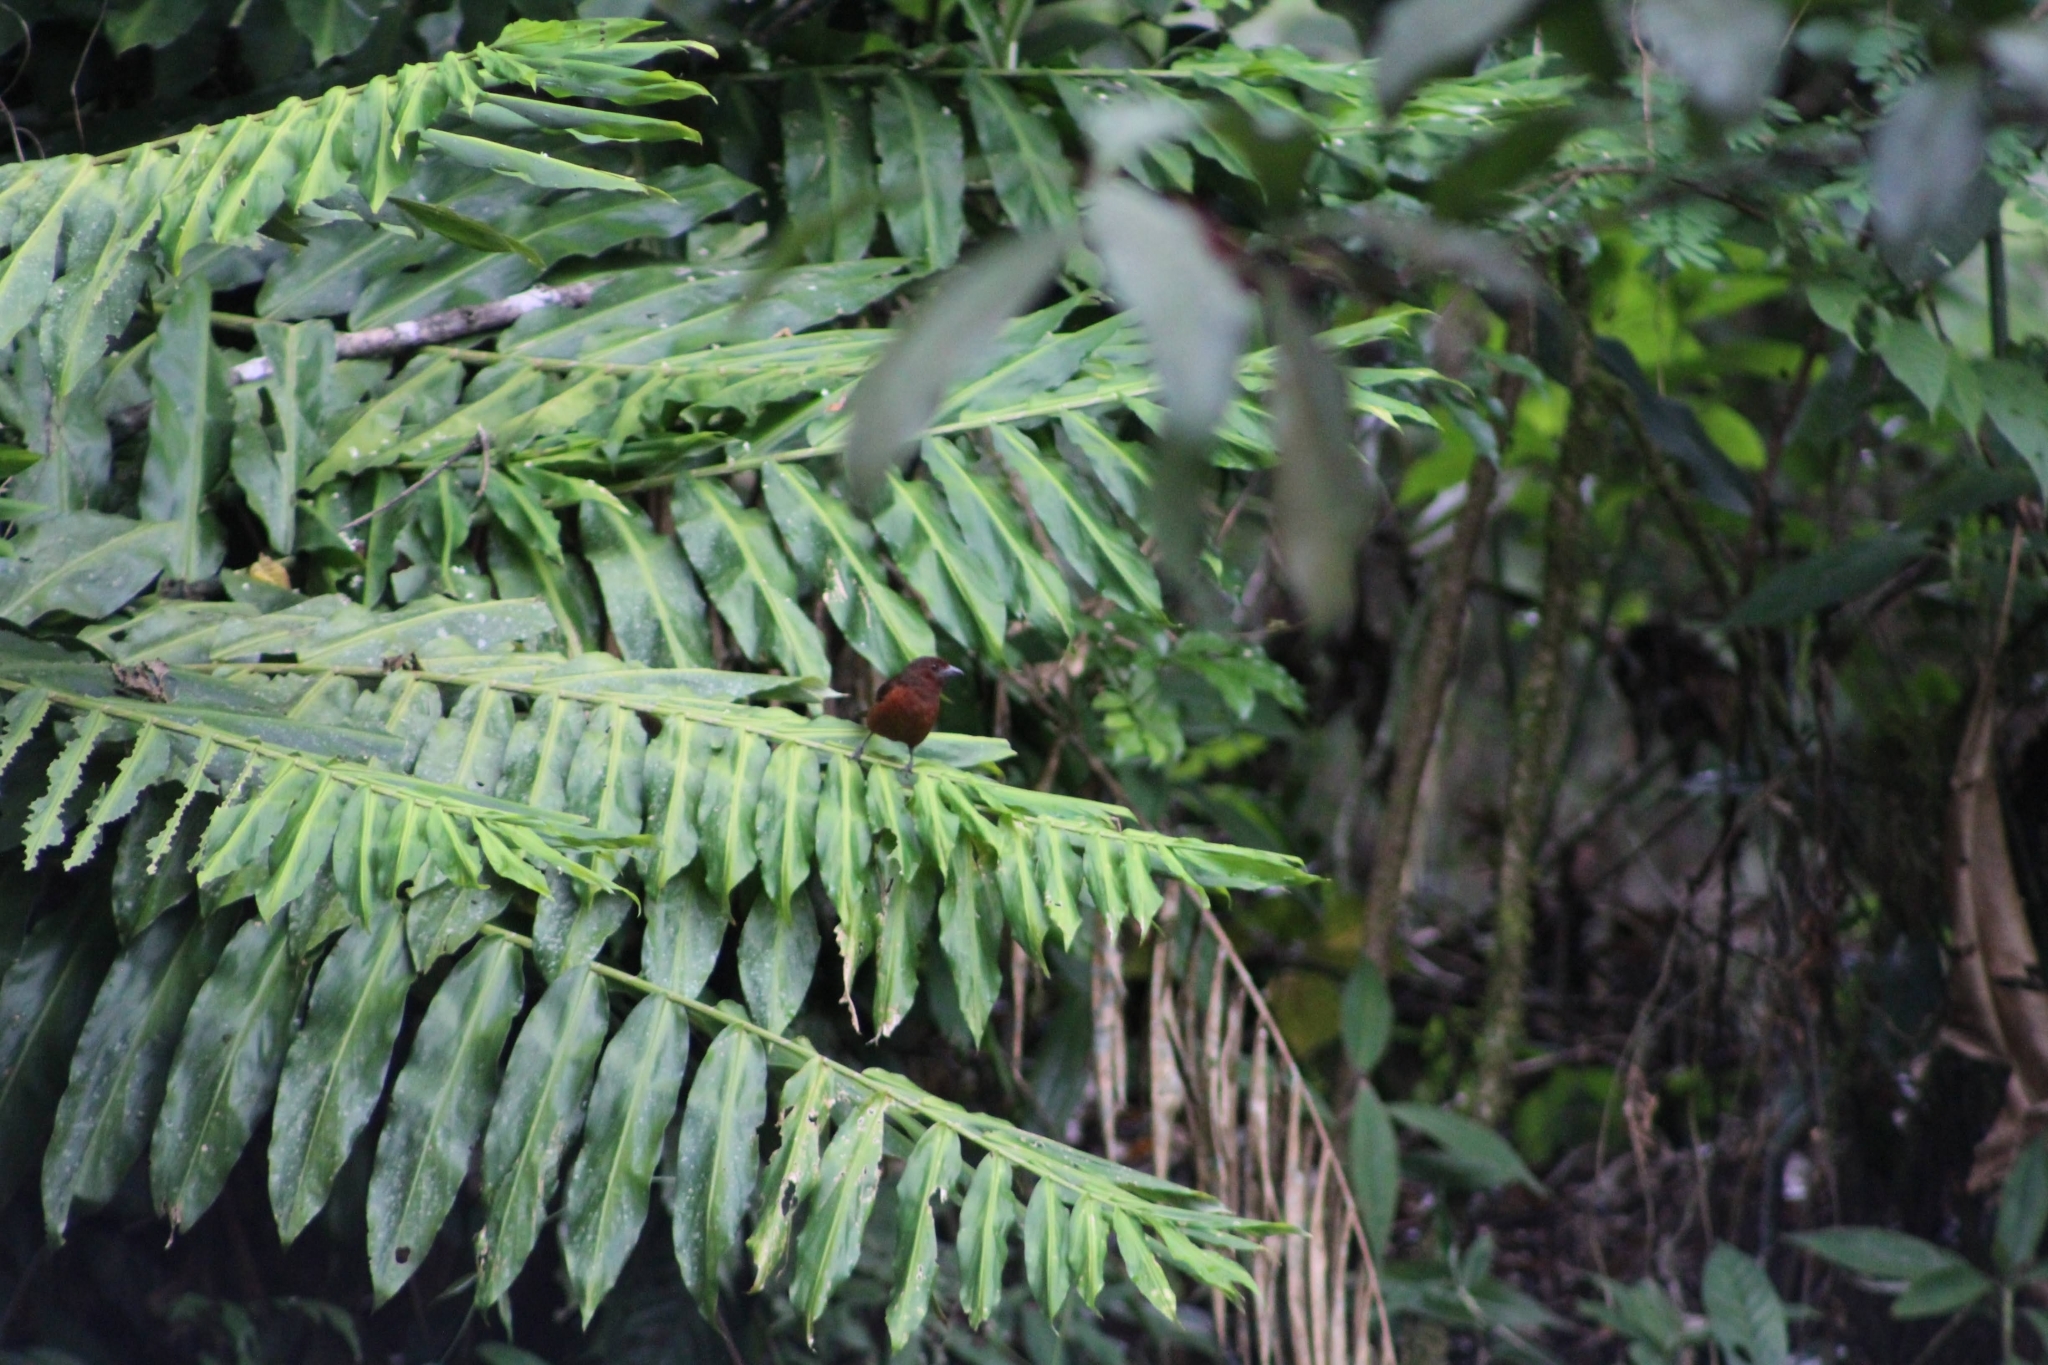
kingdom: Animalia
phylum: Chordata
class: Aves
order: Passeriformes
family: Thraupidae
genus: Ramphocelus
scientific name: Ramphocelus carbo
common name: Silver-beaked tanager
